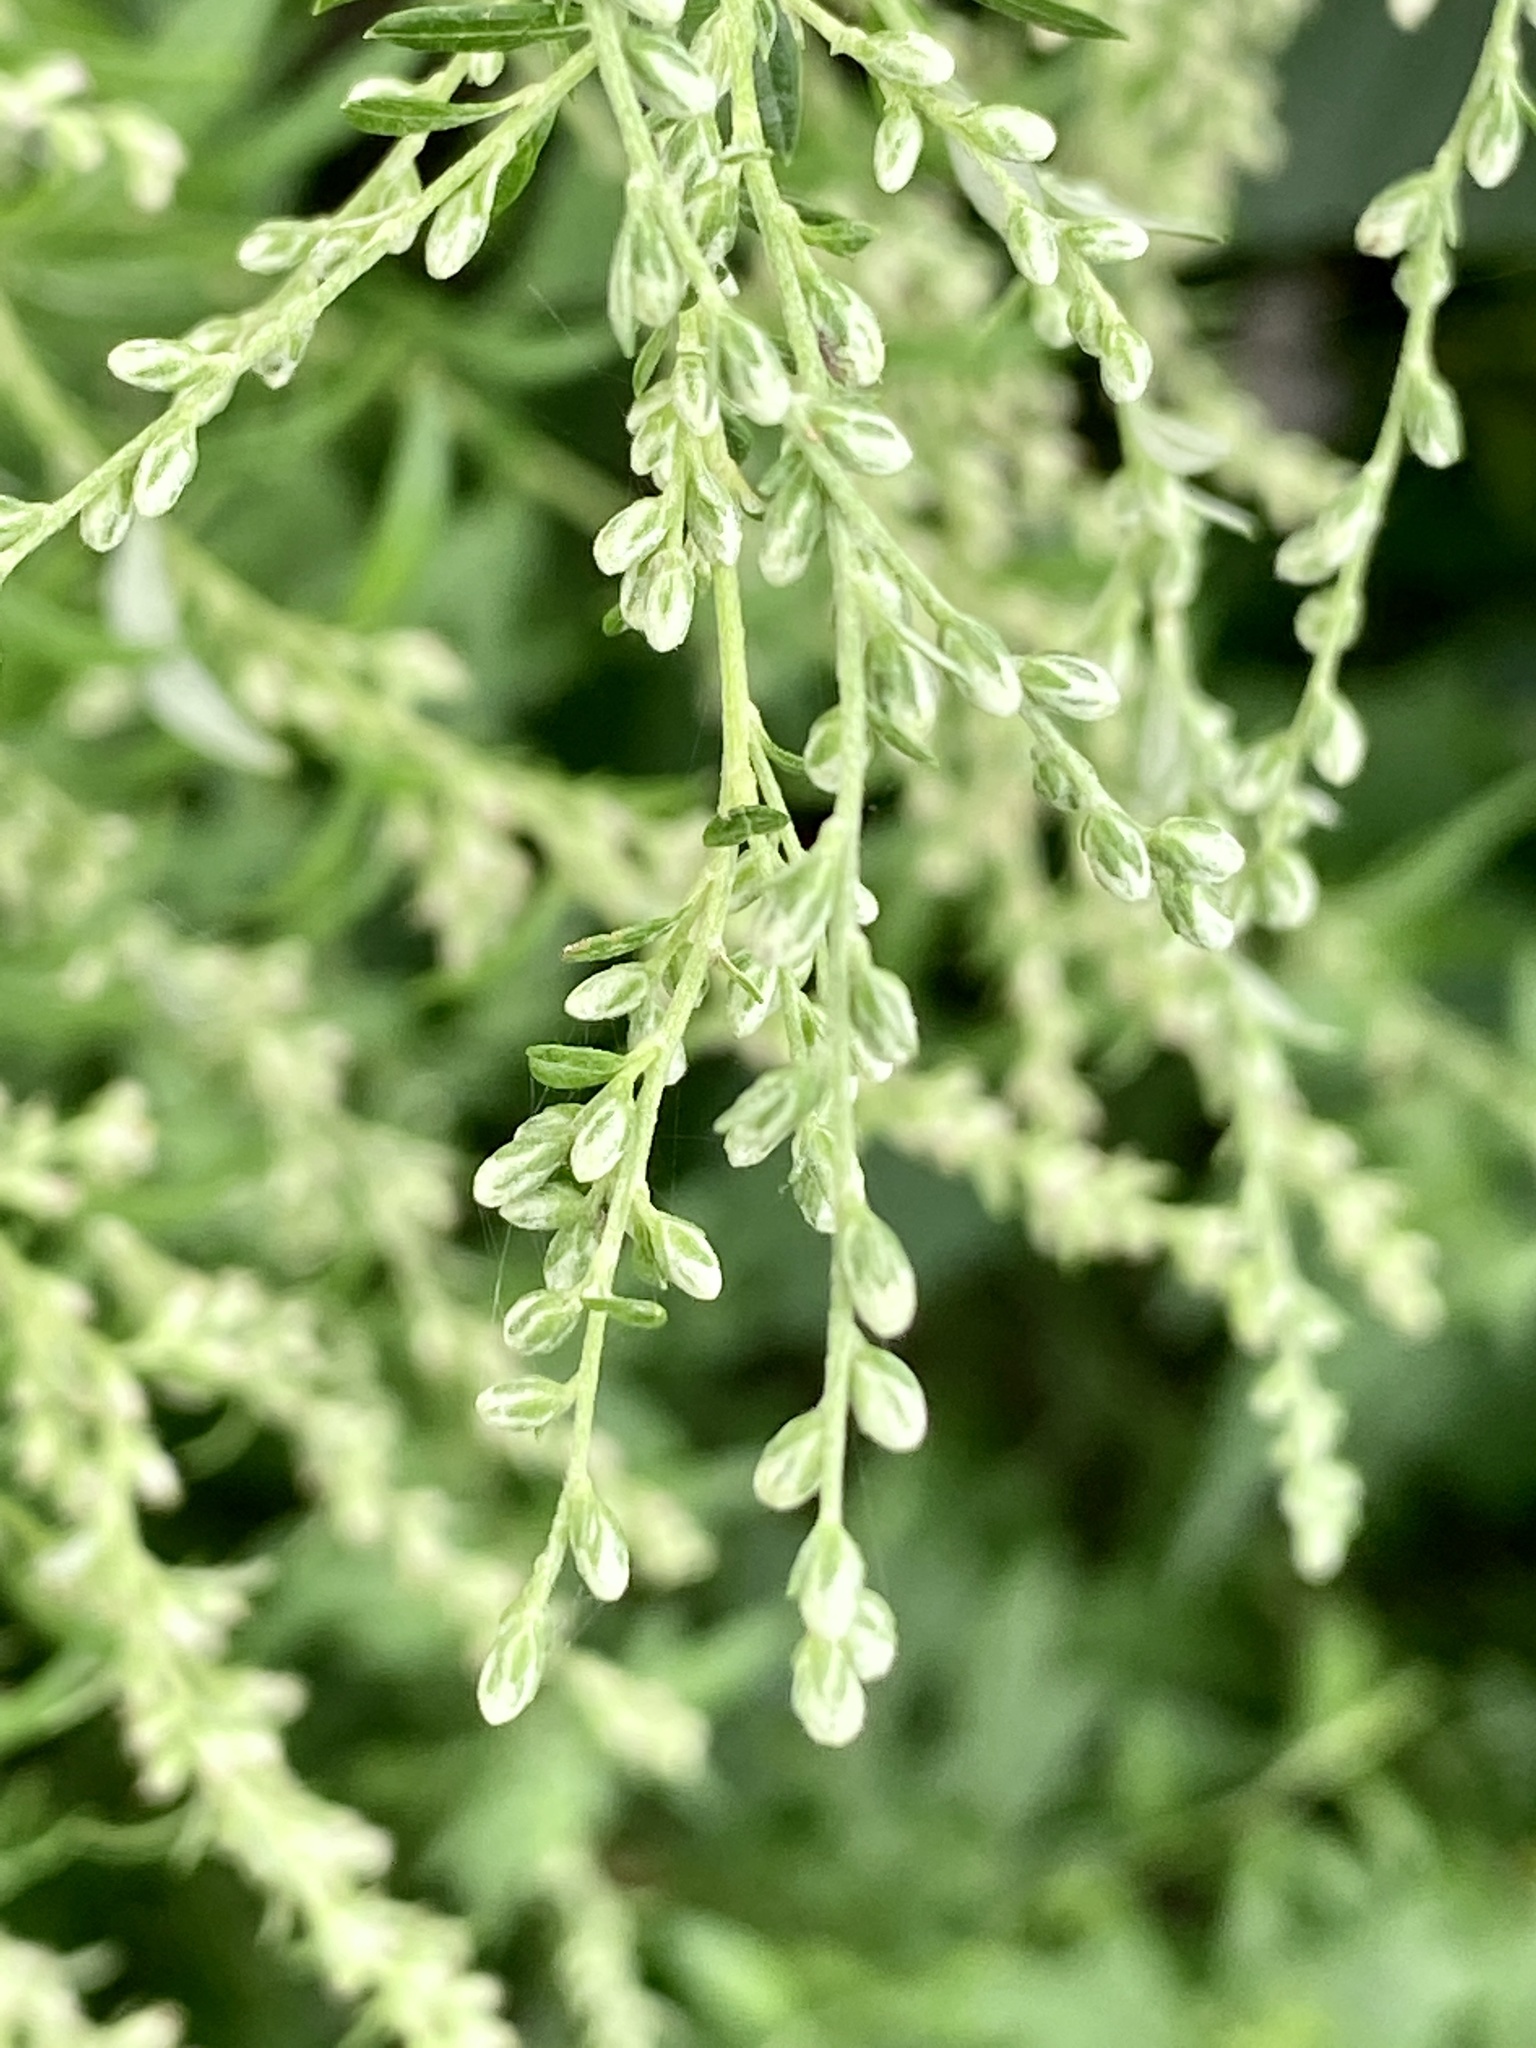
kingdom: Plantae
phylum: Tracheophyta
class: Magnoliopsida
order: Asterales
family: Asteraceae
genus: Artemisia
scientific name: Artemisia vulgaris
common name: Mugwort
